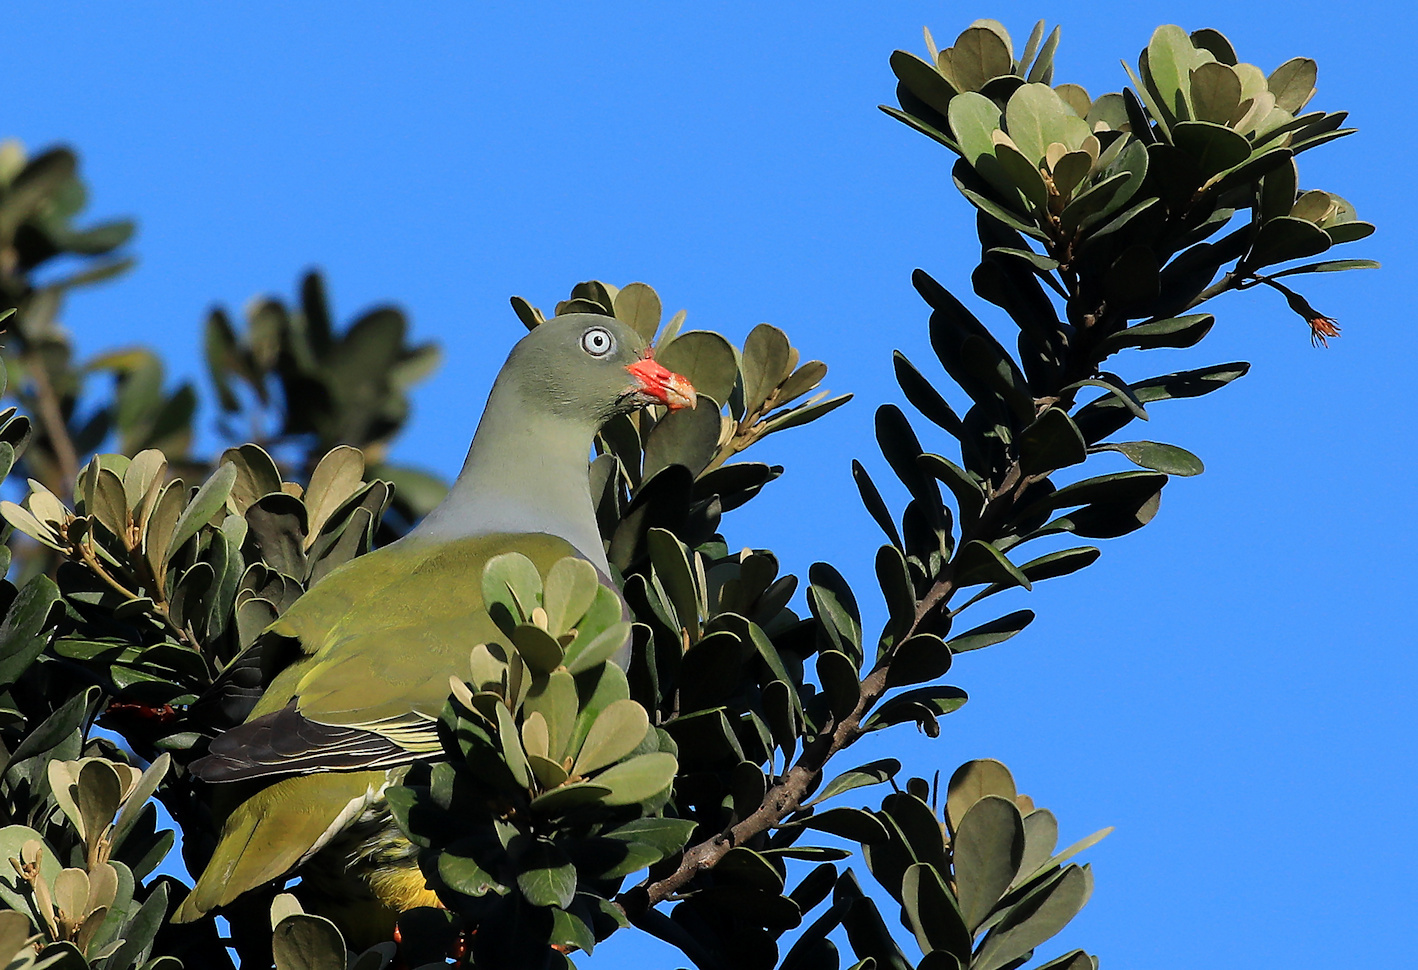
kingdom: Animalia
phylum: Chordata
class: Aves
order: Columbiformes
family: Columbidae
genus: Treron
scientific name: Treron calvus
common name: African green pigeon
